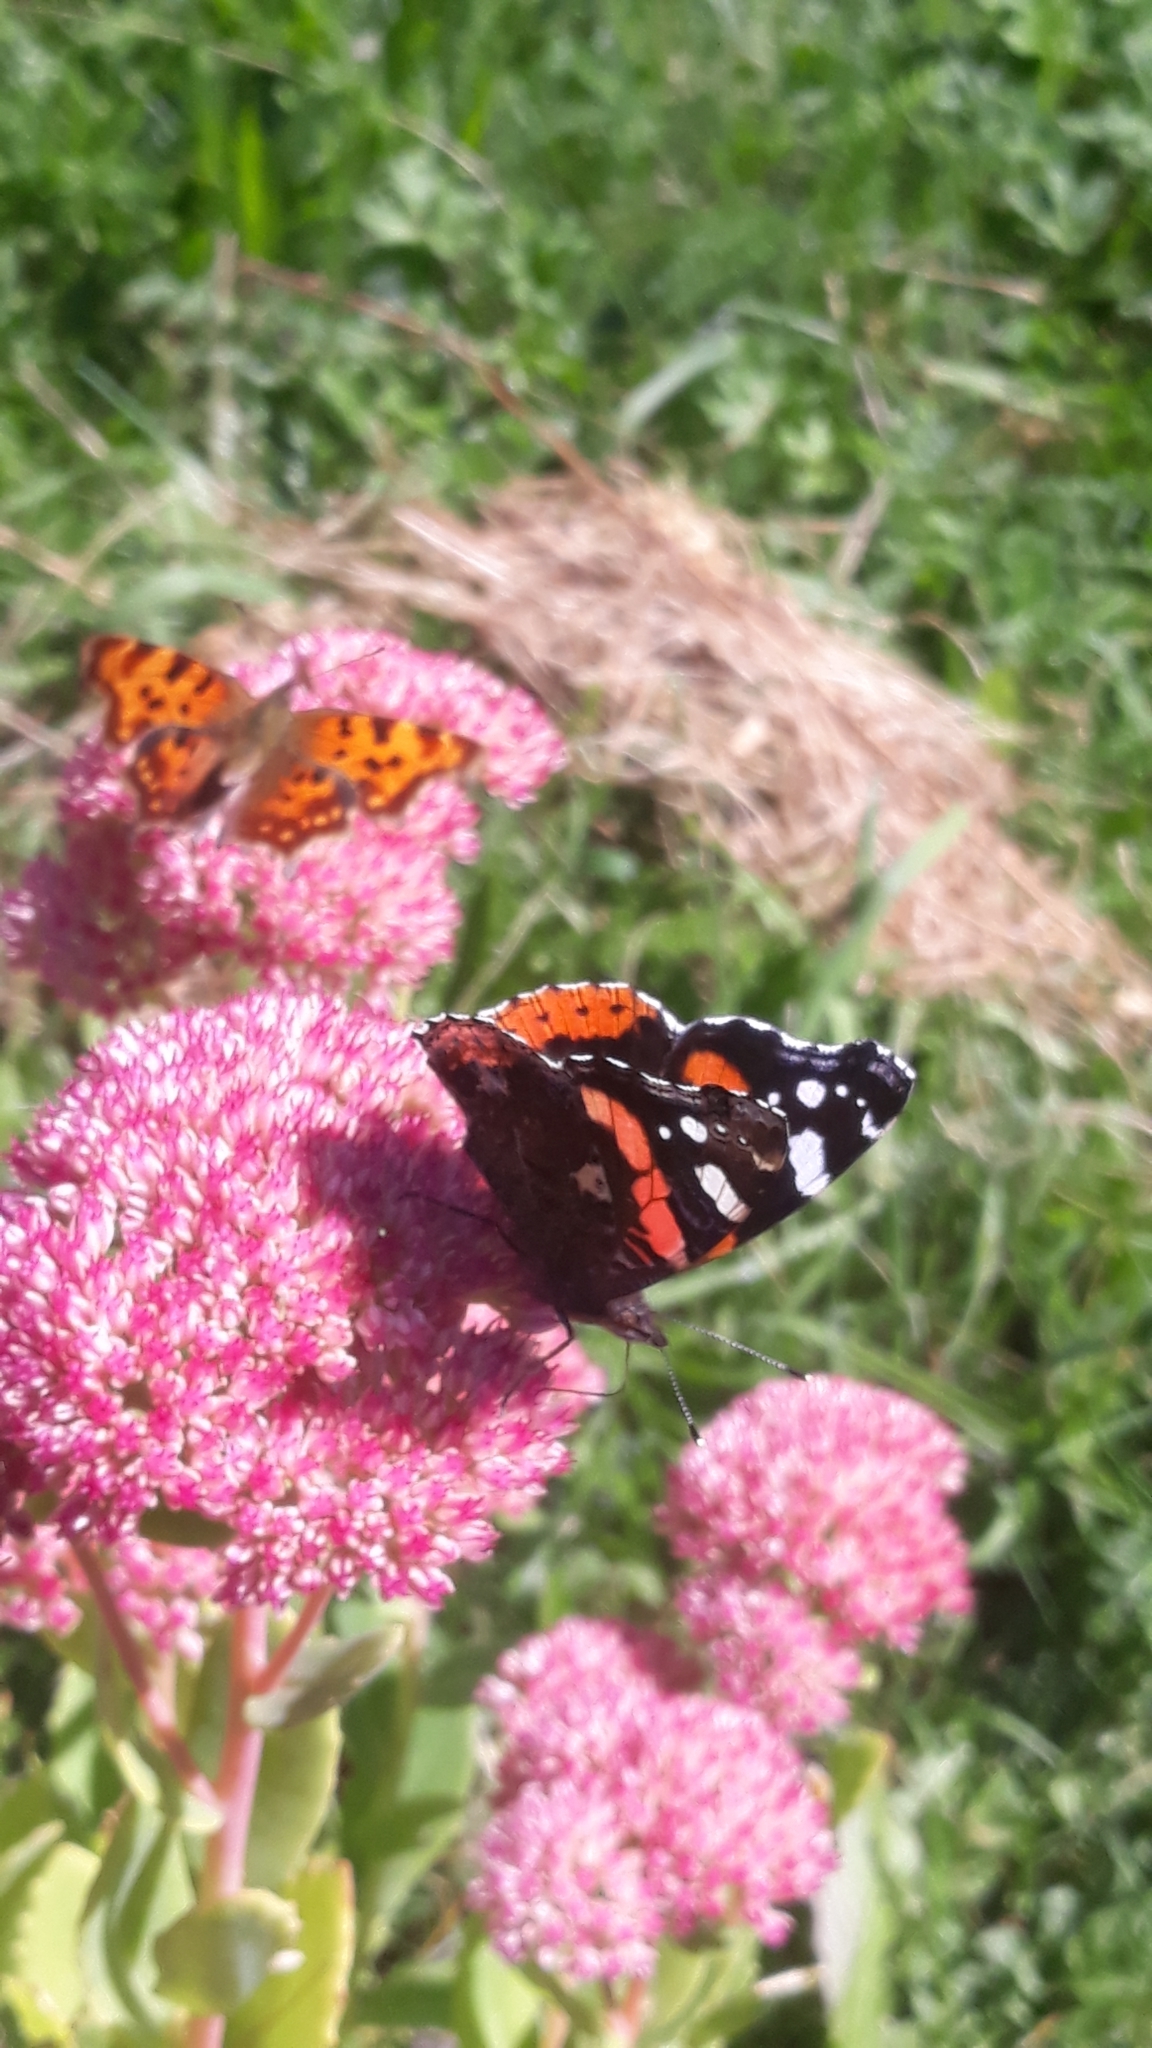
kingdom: Animalia
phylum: Arthropoda
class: Insecta
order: Lepidoptera
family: Nymphalidae
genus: Vanessa
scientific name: Vanessa atalanta
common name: Red admiral
